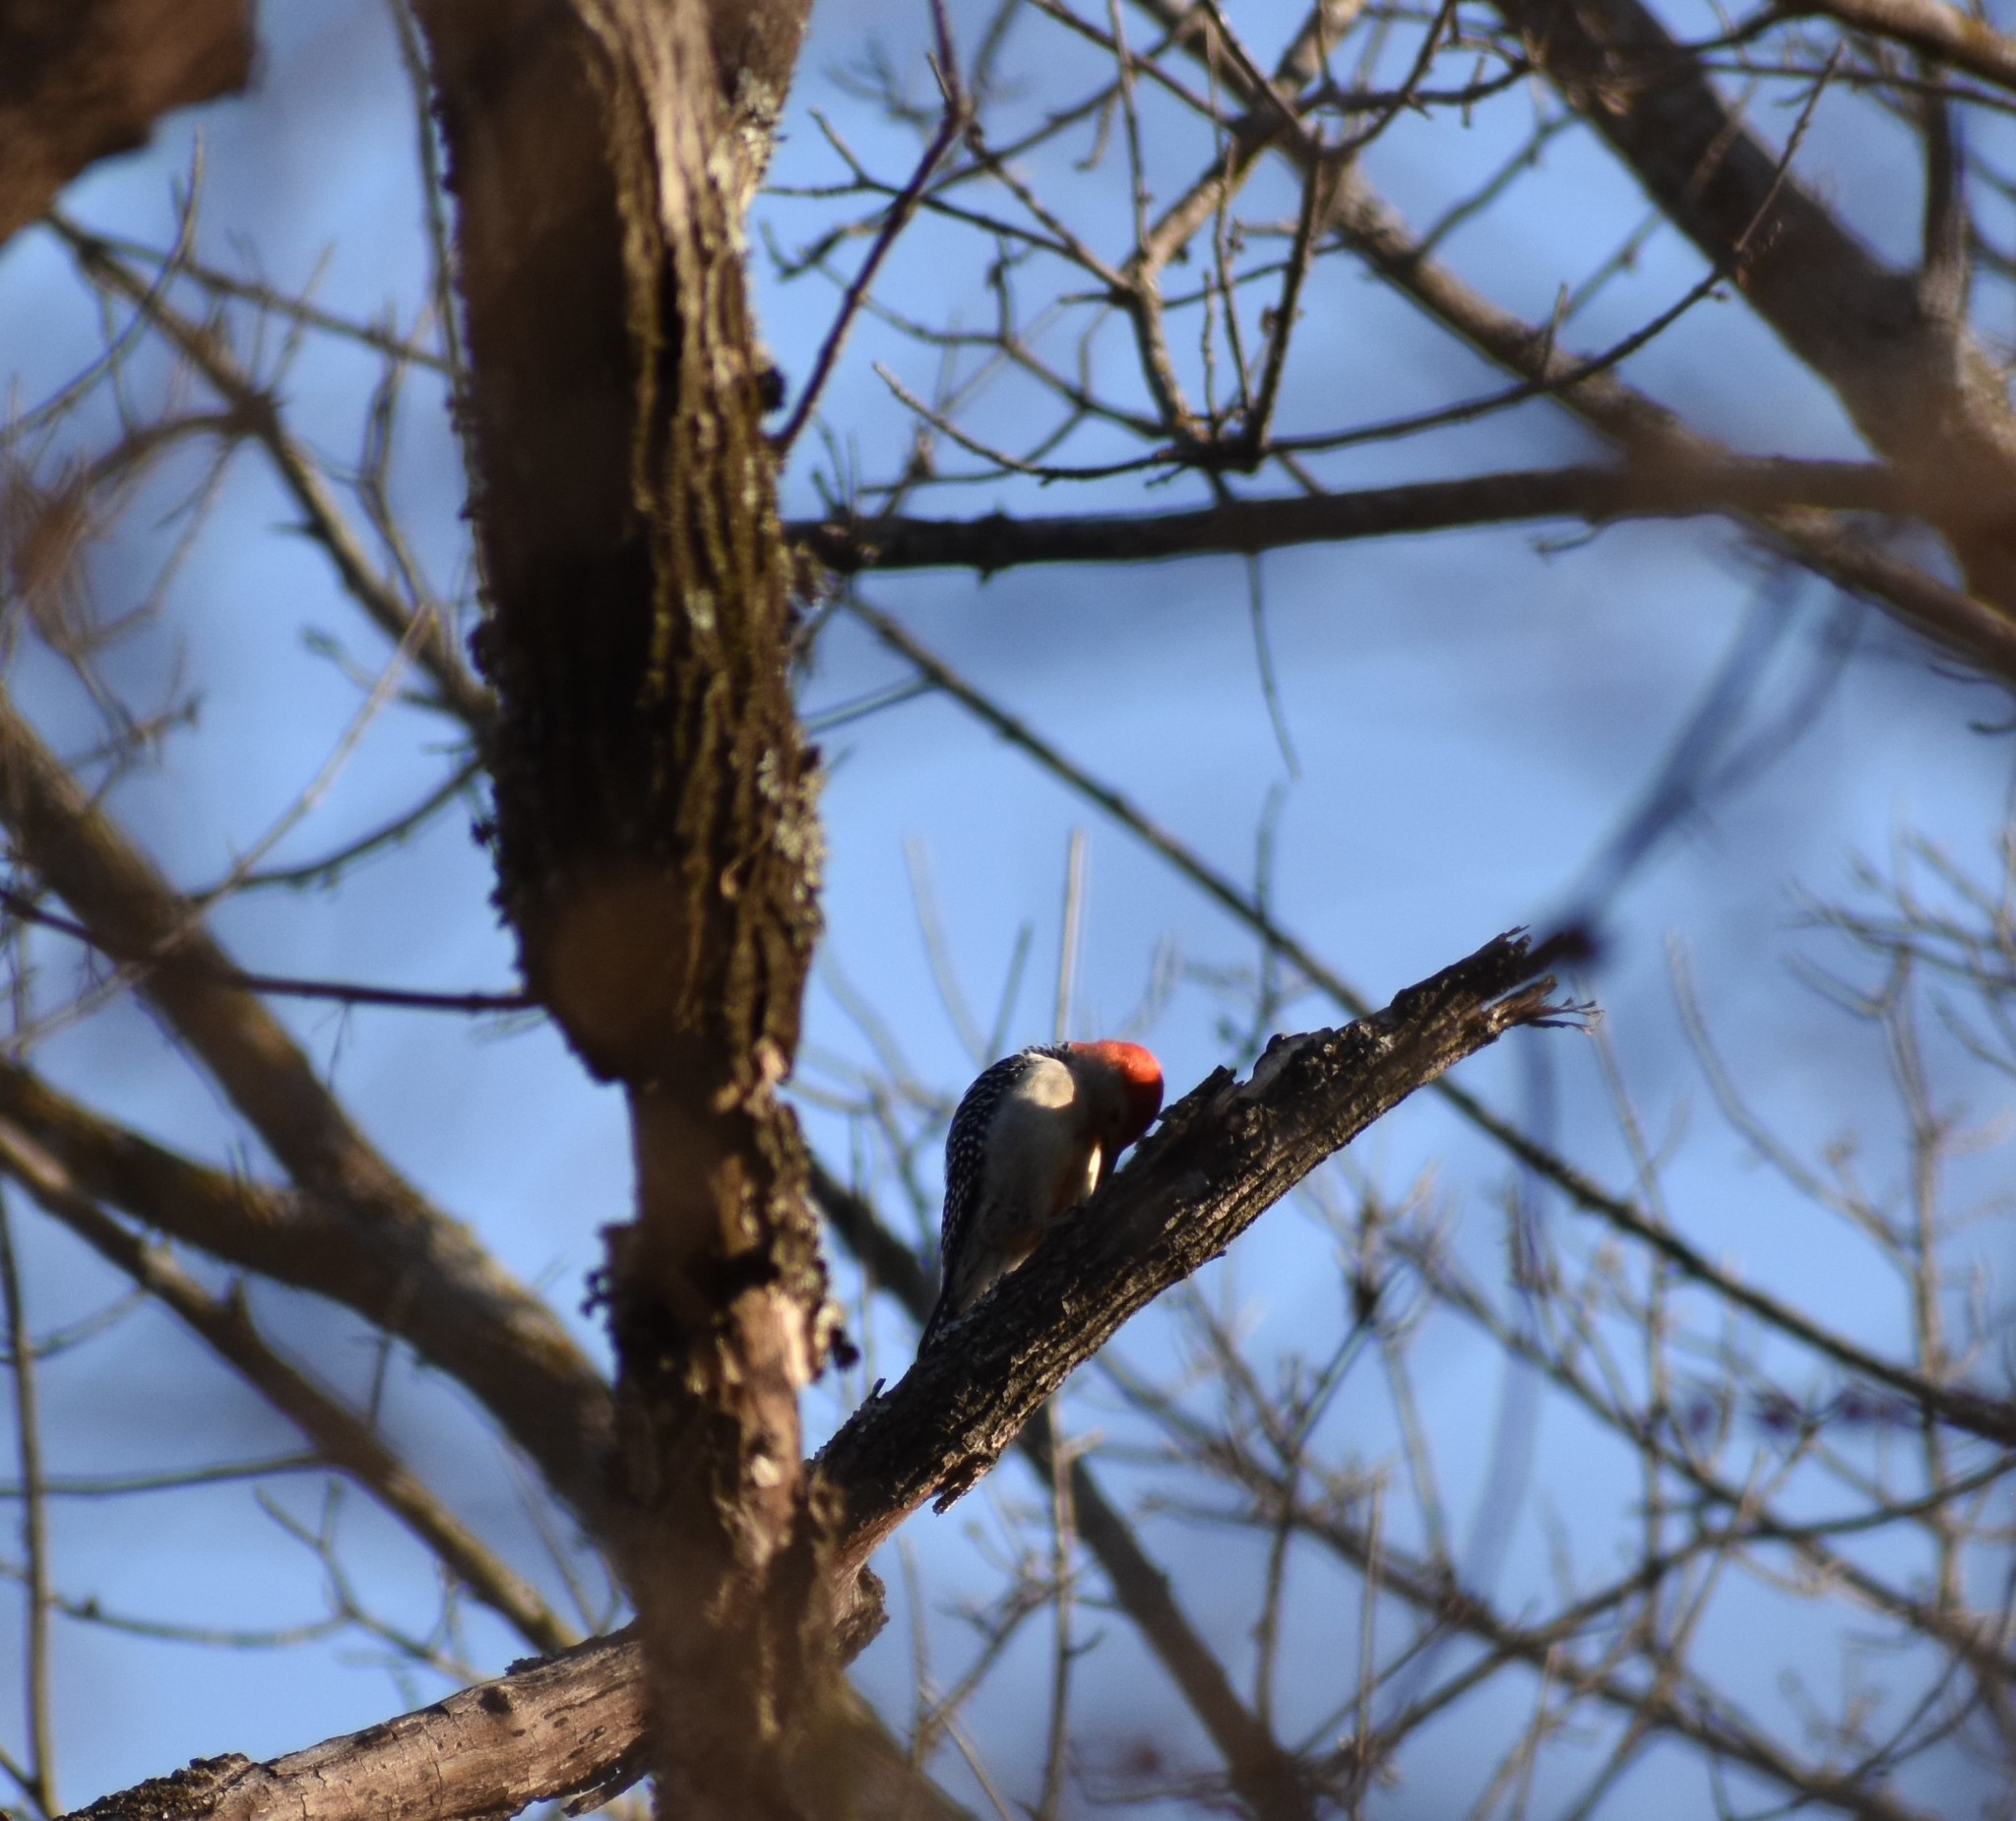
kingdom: Animalia
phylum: Chordata
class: Aves
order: Piciformes
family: Picidae
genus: Melanerpes
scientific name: Melanerpes carolinus
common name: Red-bellied woodpecker
